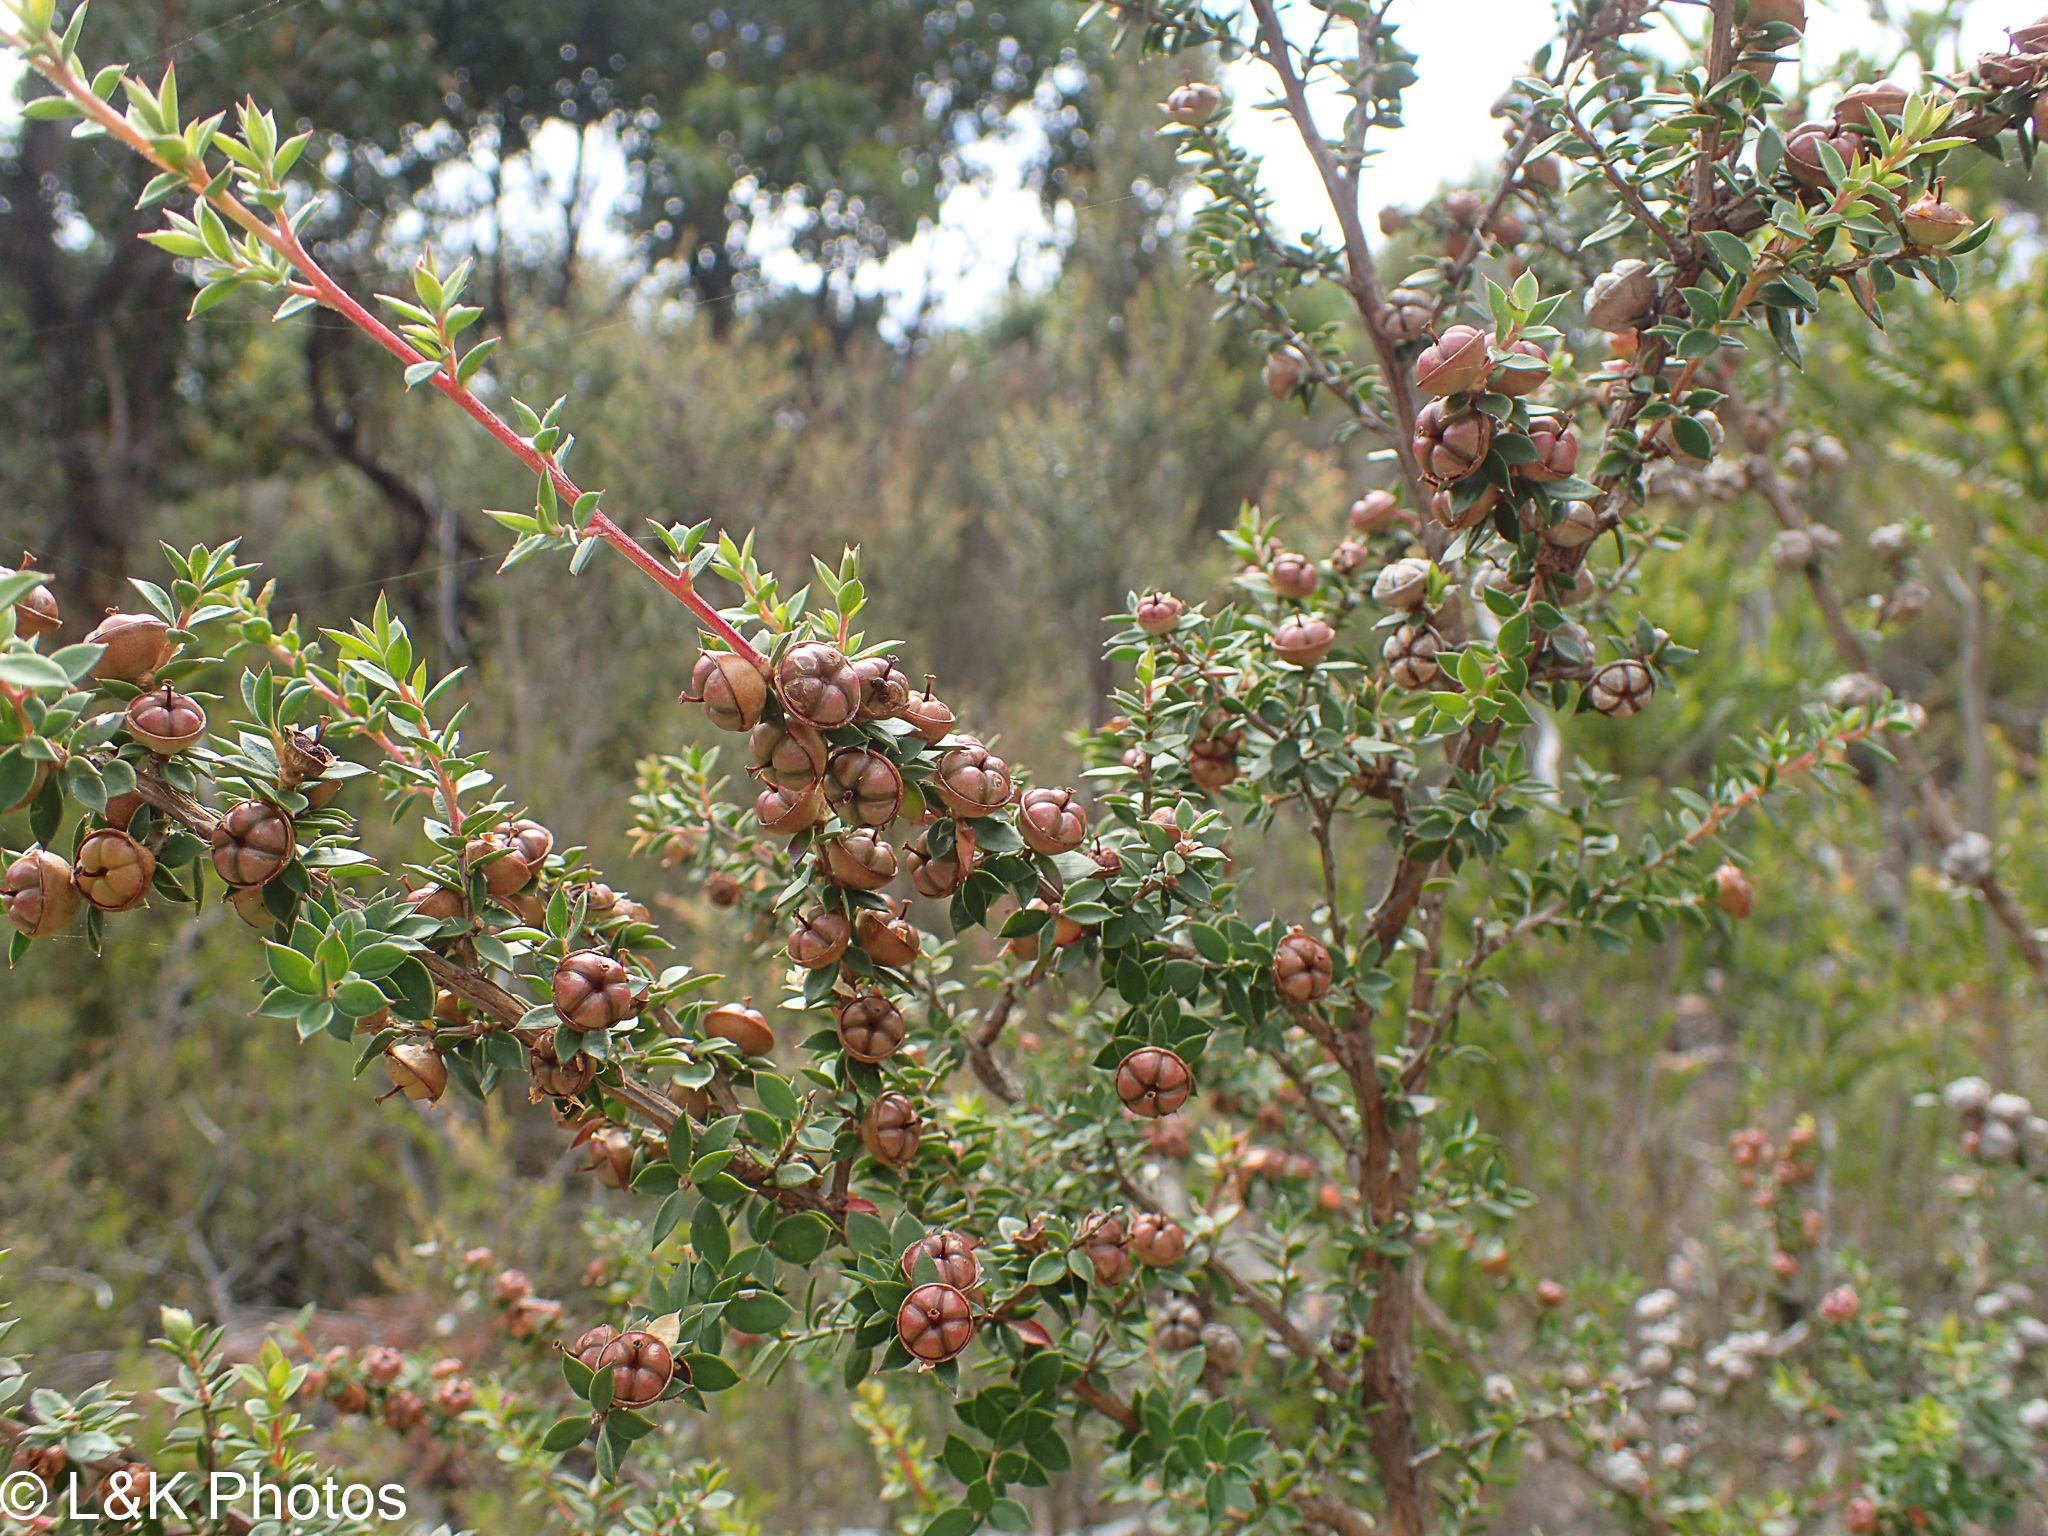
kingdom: Plantae
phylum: Tracheophyta
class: Magnoliopsida
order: Myrtales
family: Myrtaceae
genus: Leptospermum
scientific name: Leptospermum scoparium
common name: Broom tea-tree
